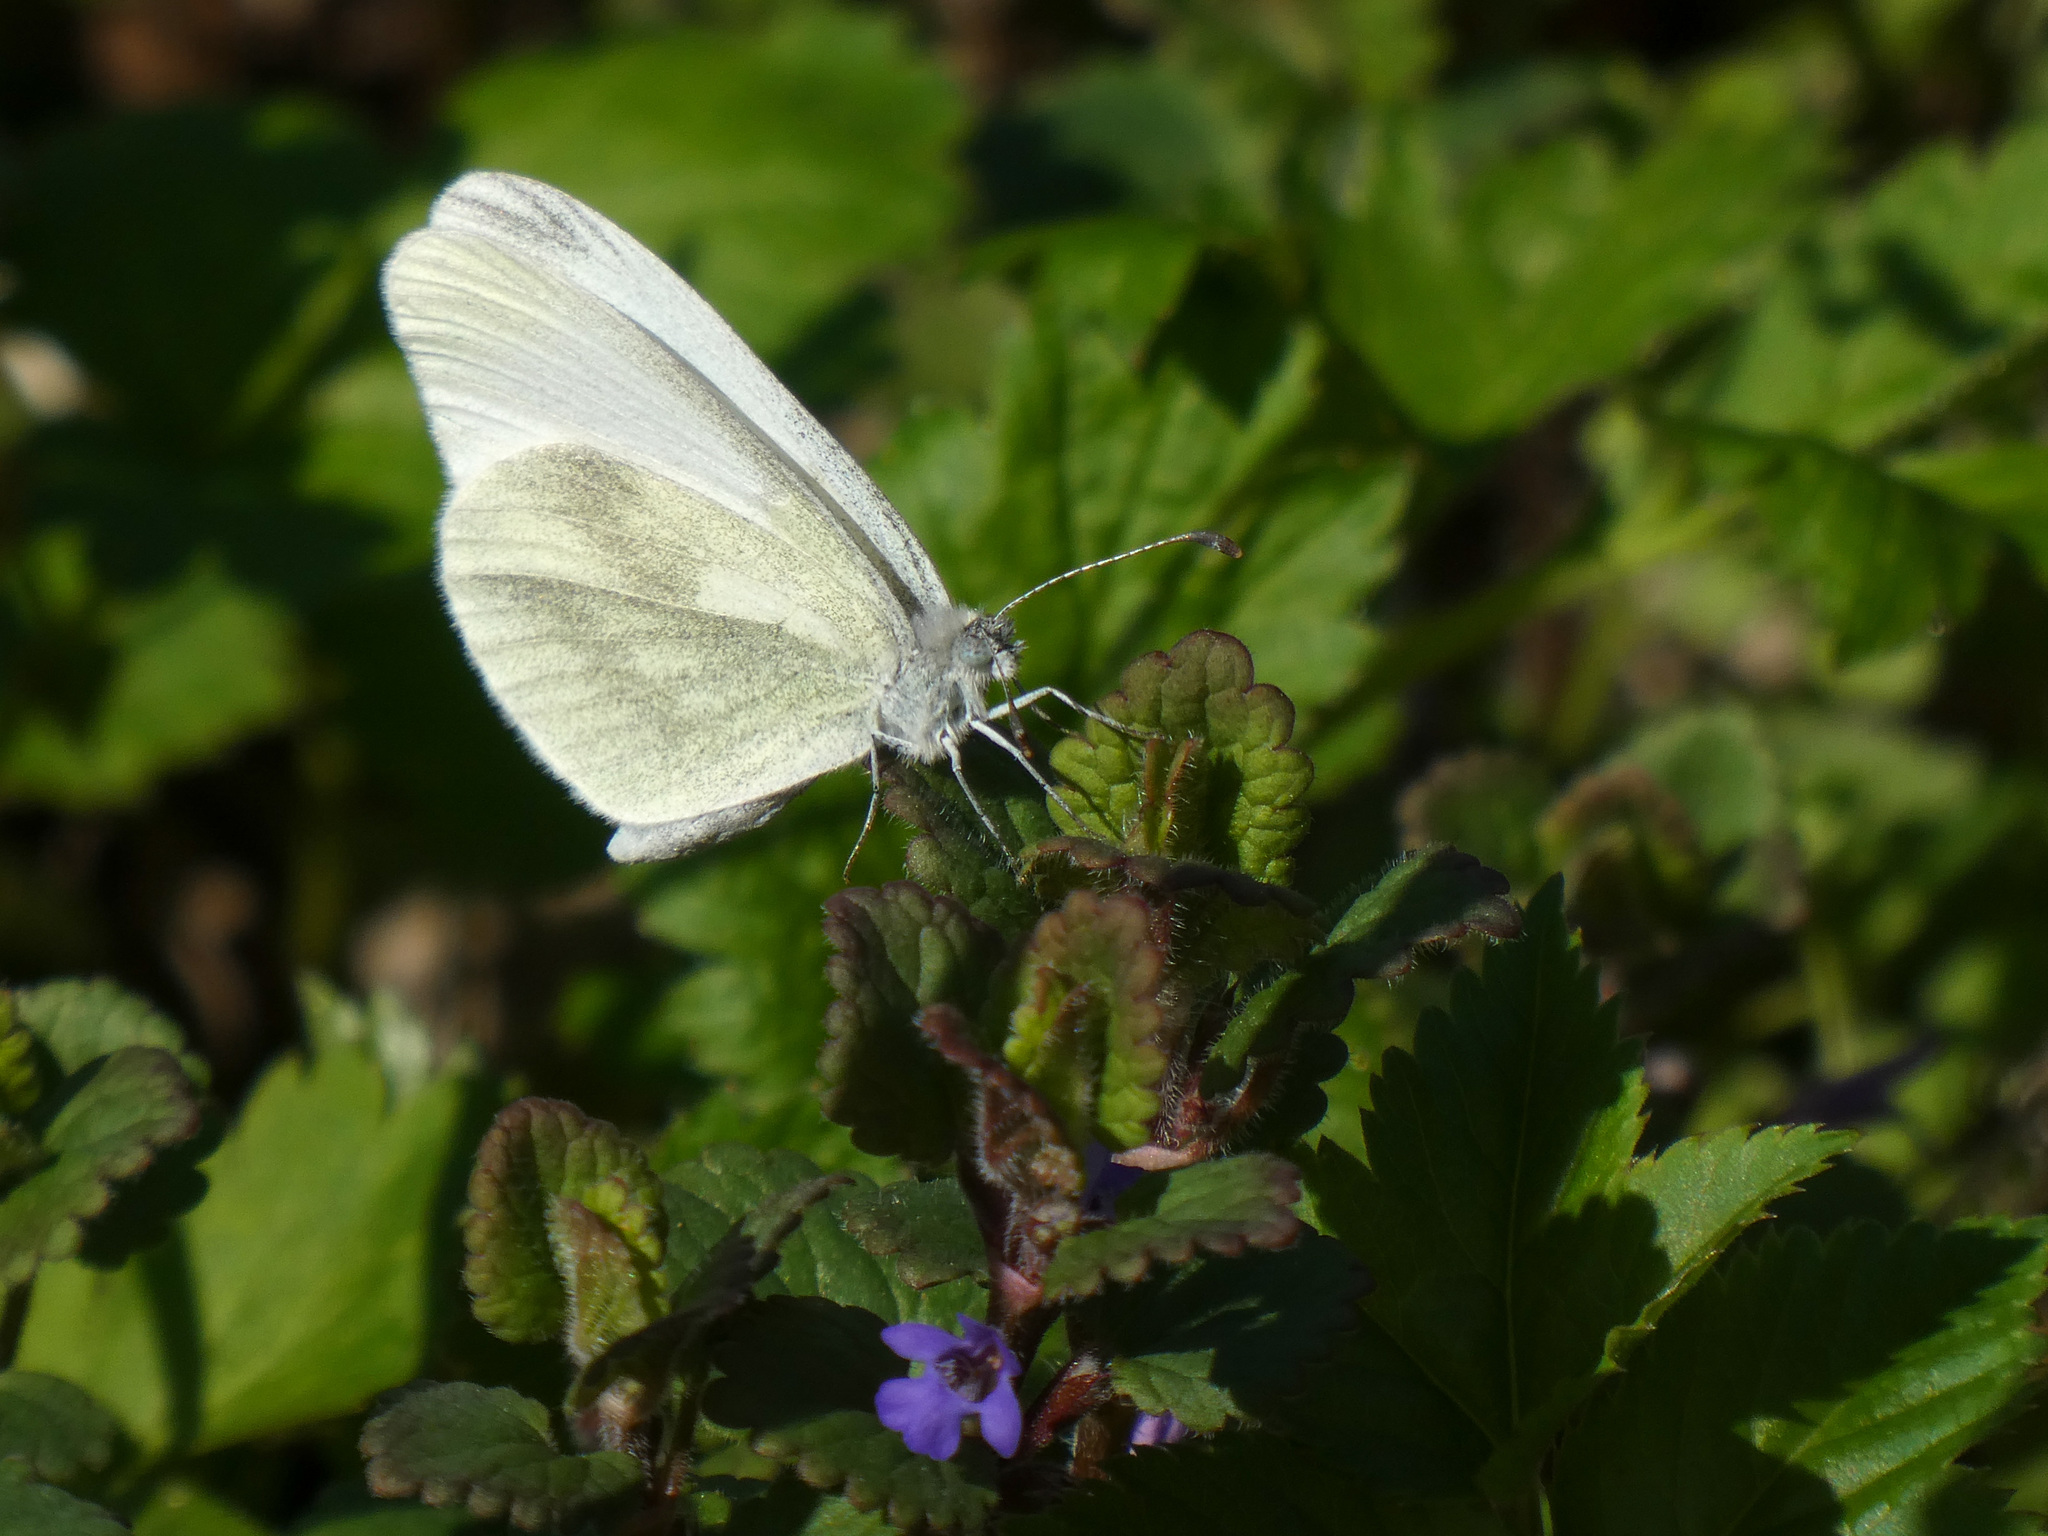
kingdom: Animalia
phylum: Arthropoda
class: Insecta
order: Lepidoptera
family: Pieridae
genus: Leptidea
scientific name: Leptidea
